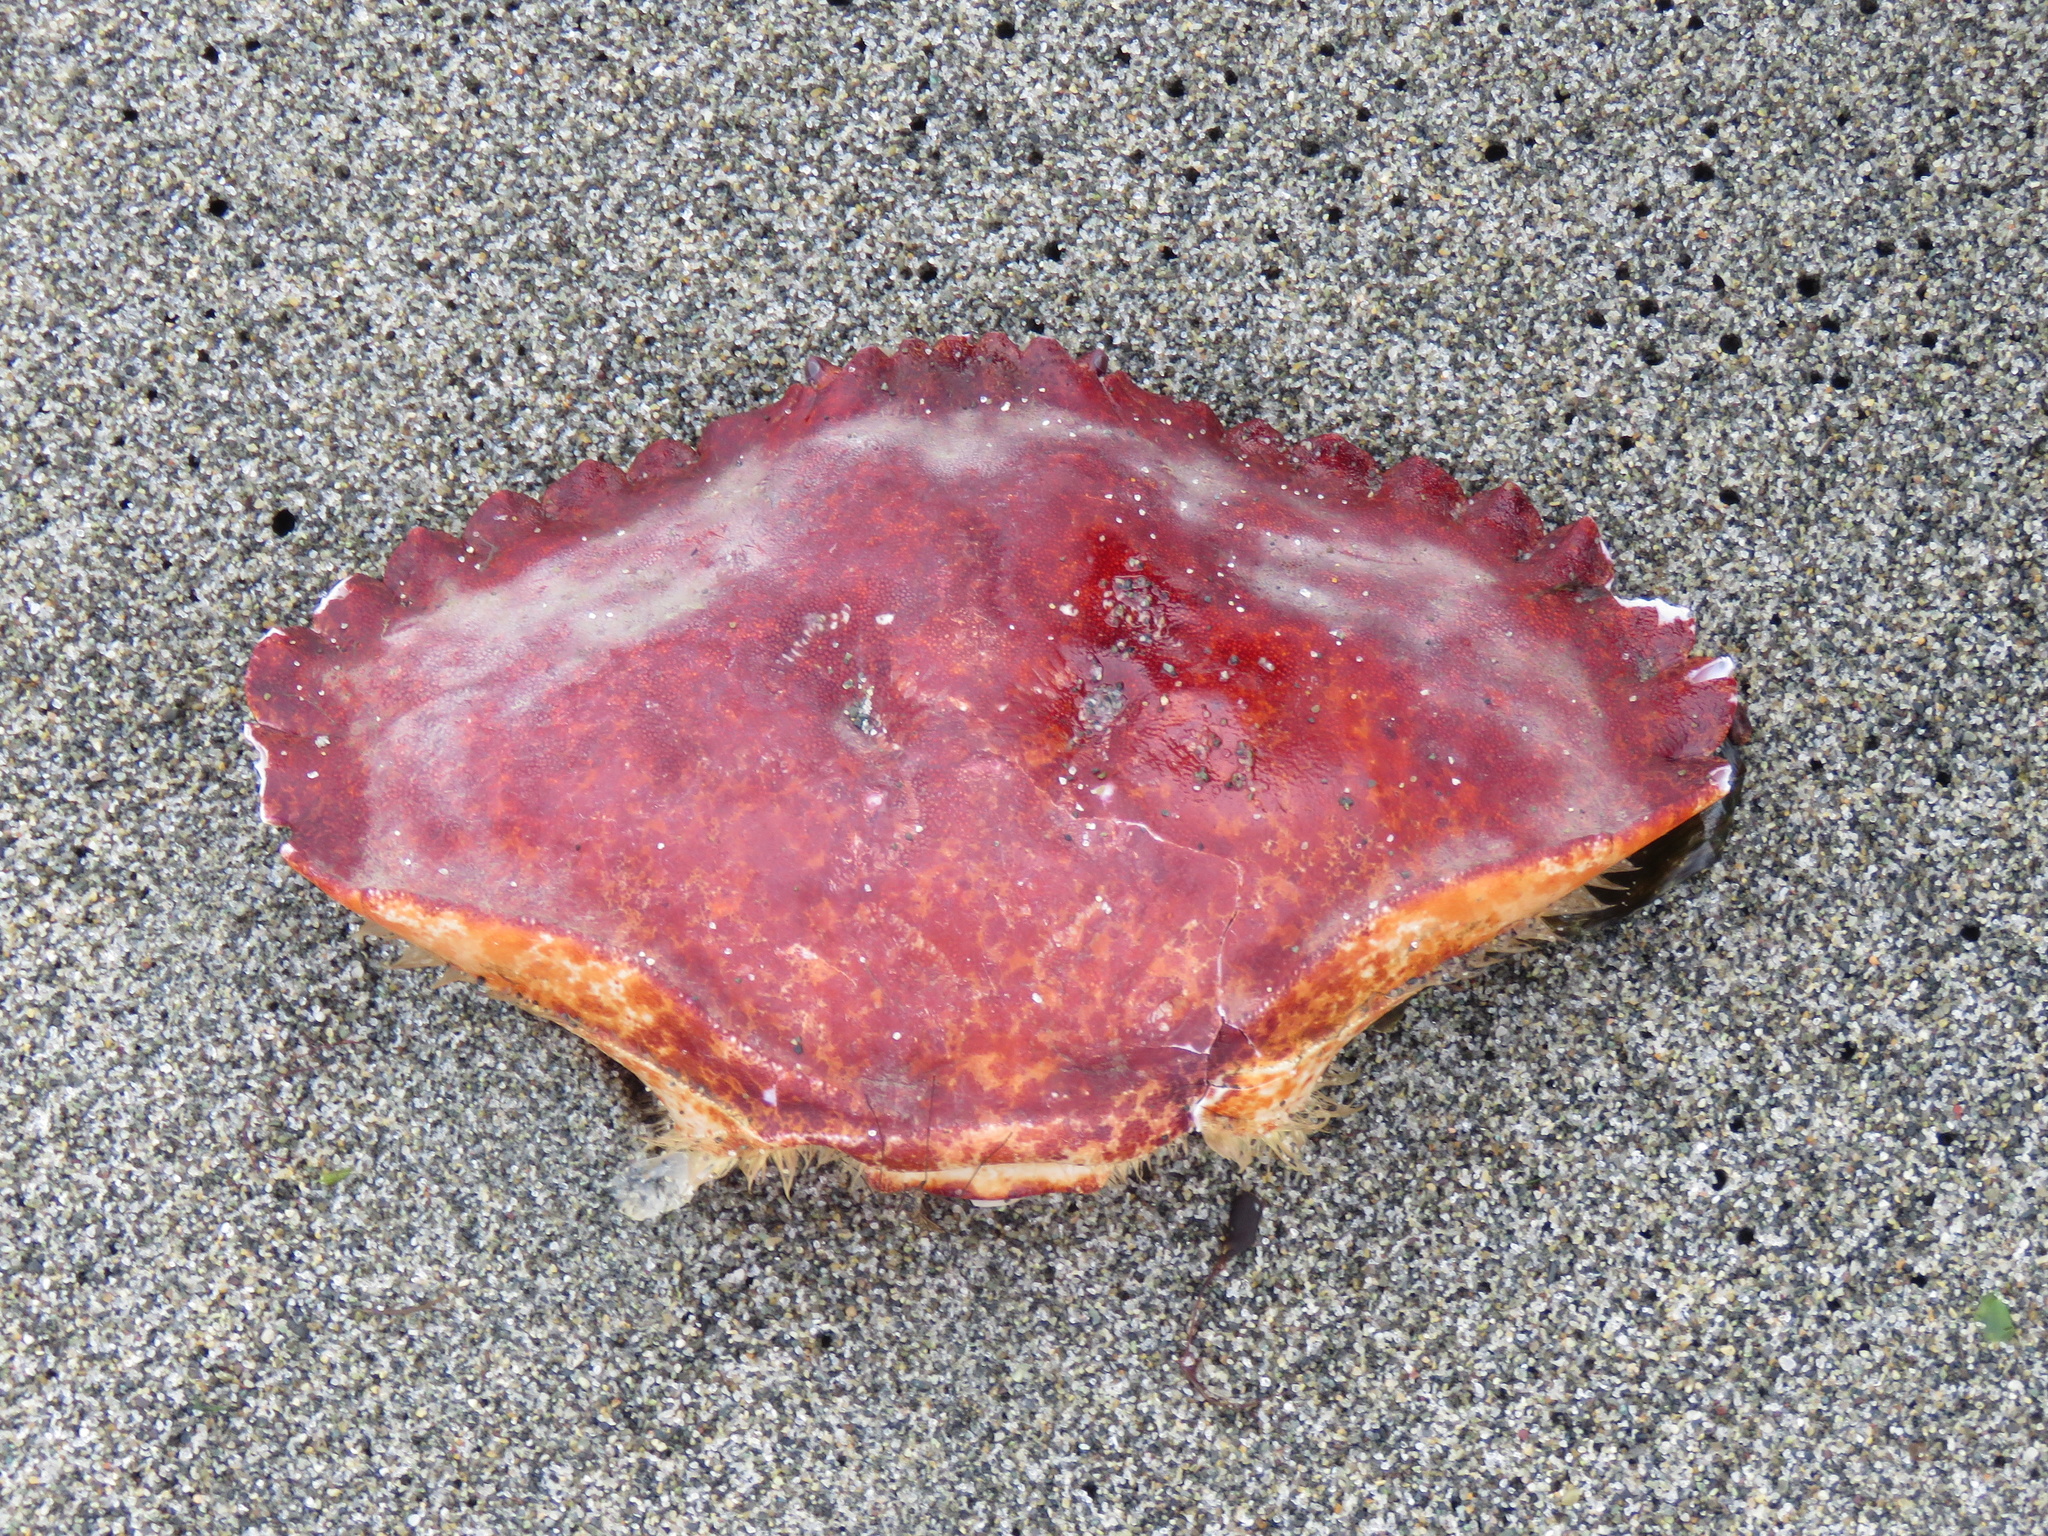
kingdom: Animalia
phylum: Arthropoda
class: Malacostraca
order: Decapoda
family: Cancridae
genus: Cancer
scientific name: Cancer productus
